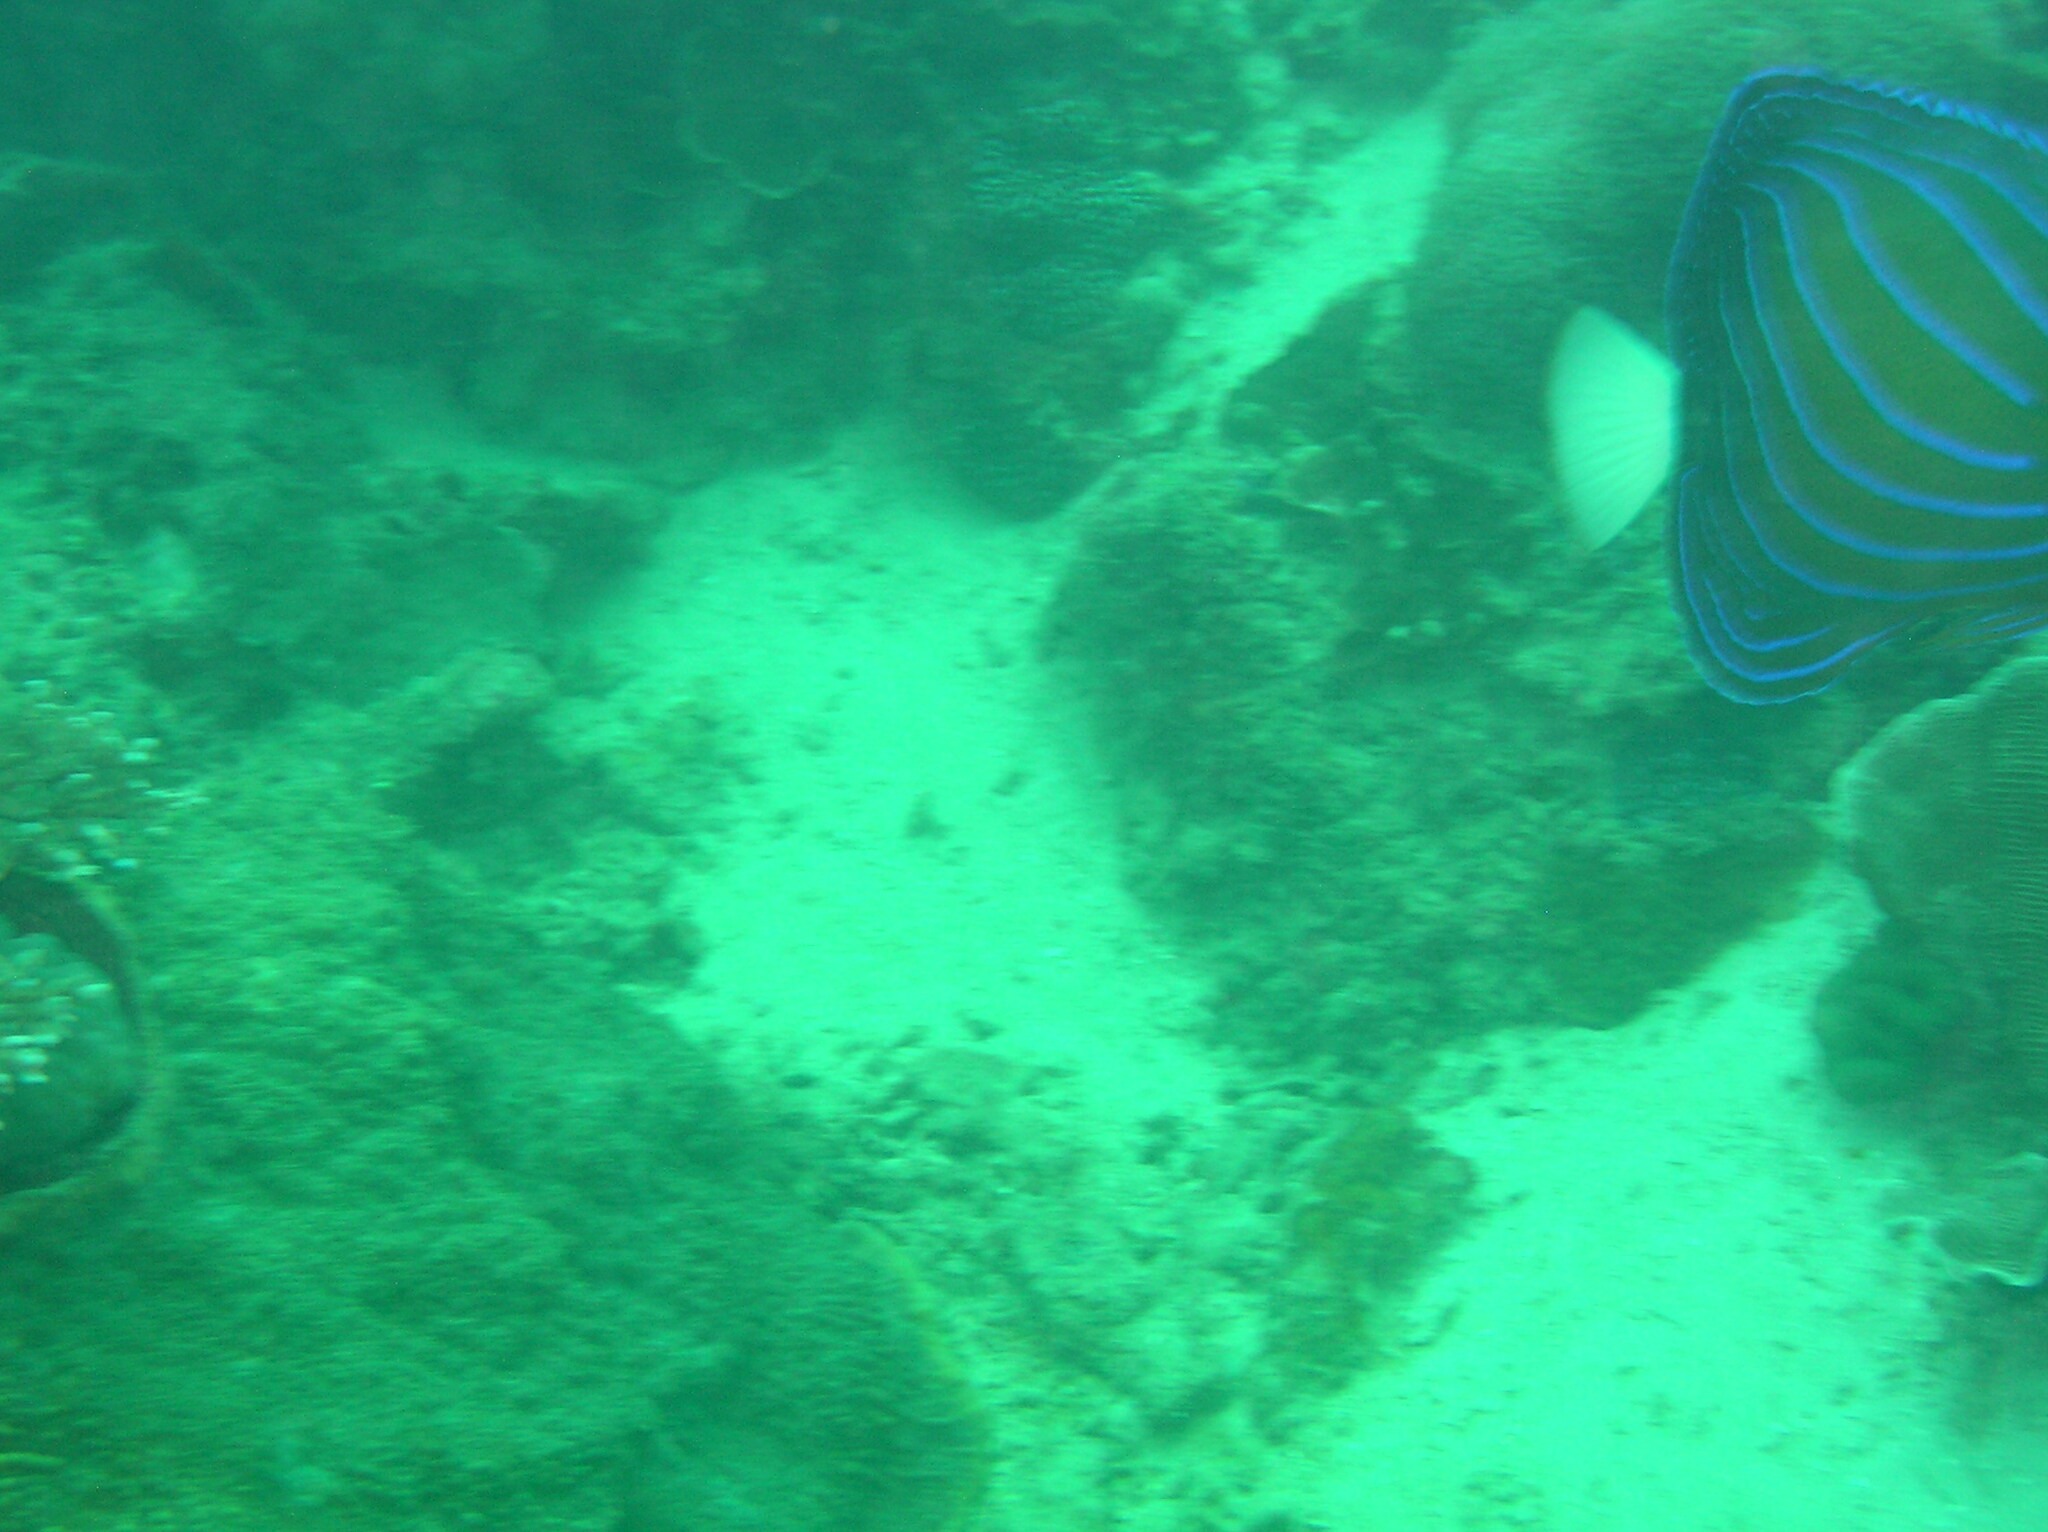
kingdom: Animalia
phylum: Chordata
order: Perciformes
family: Pomacanthidae
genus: Pomacanthus
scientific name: Pomacanthus annularis
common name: Bluering angelfish
